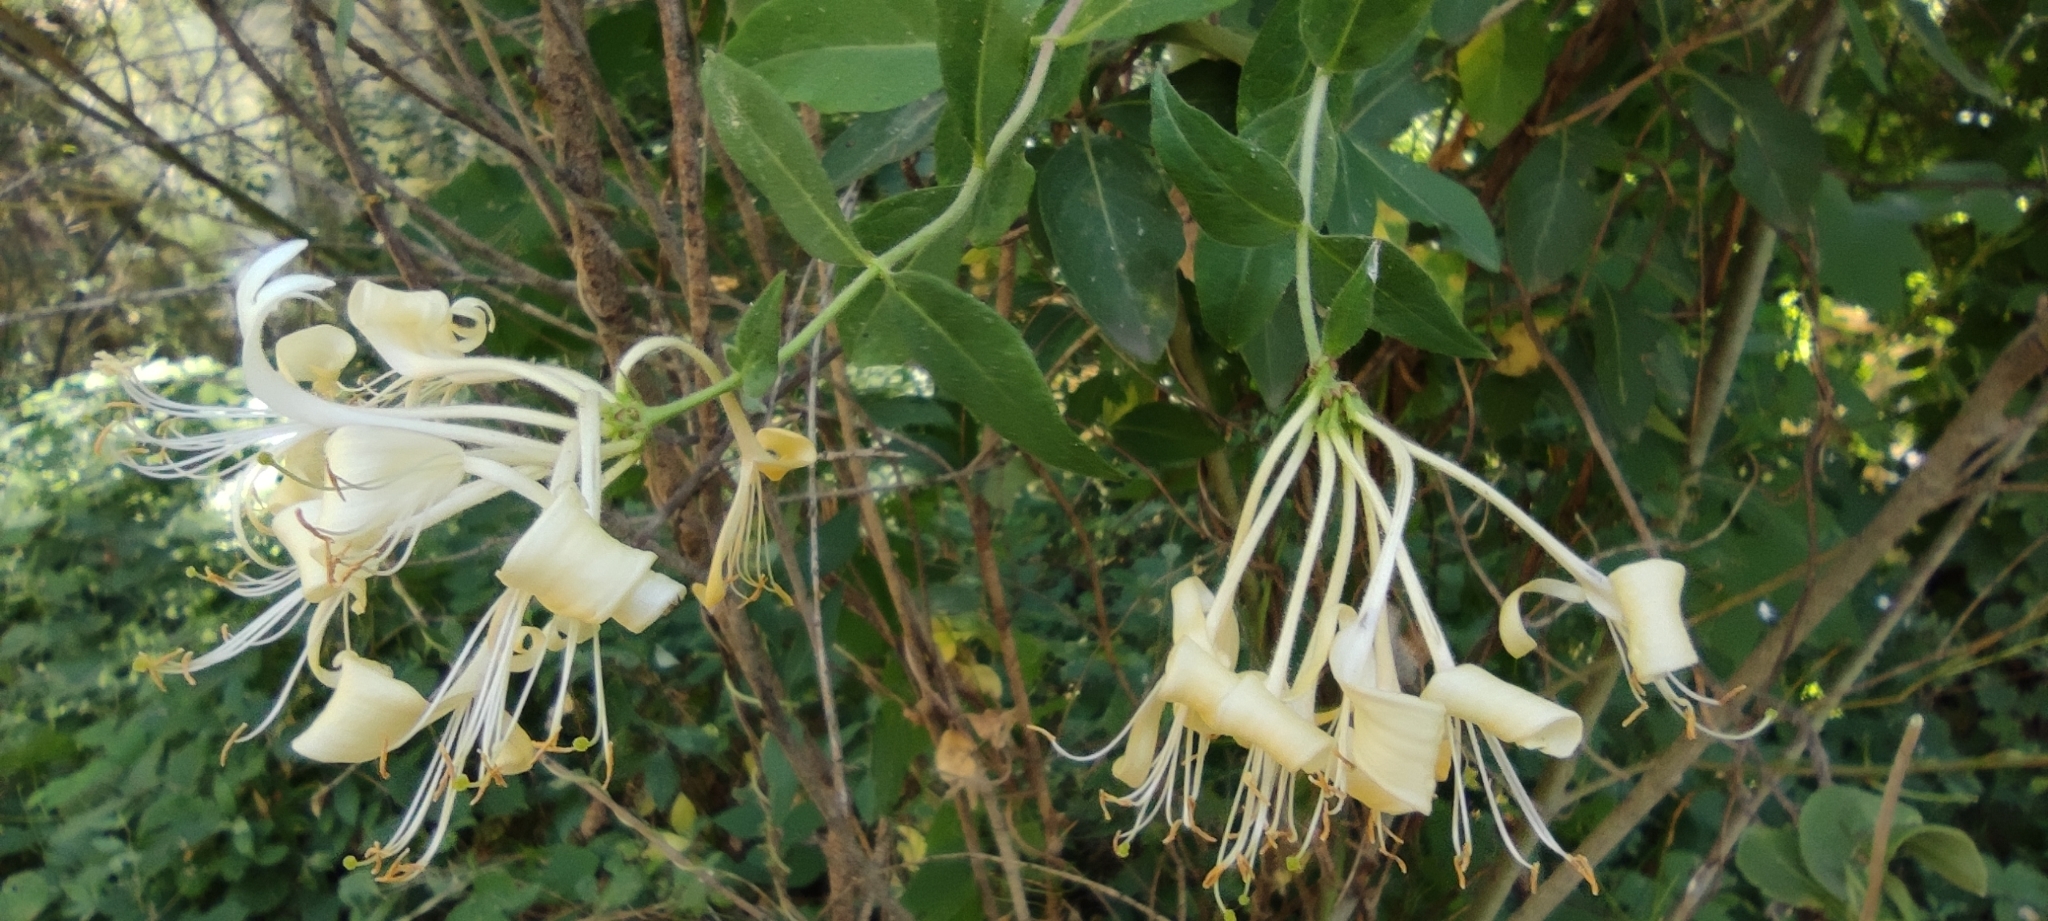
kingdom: Plantae
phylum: Tracheophyta
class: Magnoliopsida
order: Dipsacales
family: Caprifoliaceae
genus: Lonicera
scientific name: Lonicera periclymenum
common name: European honeysuckle
